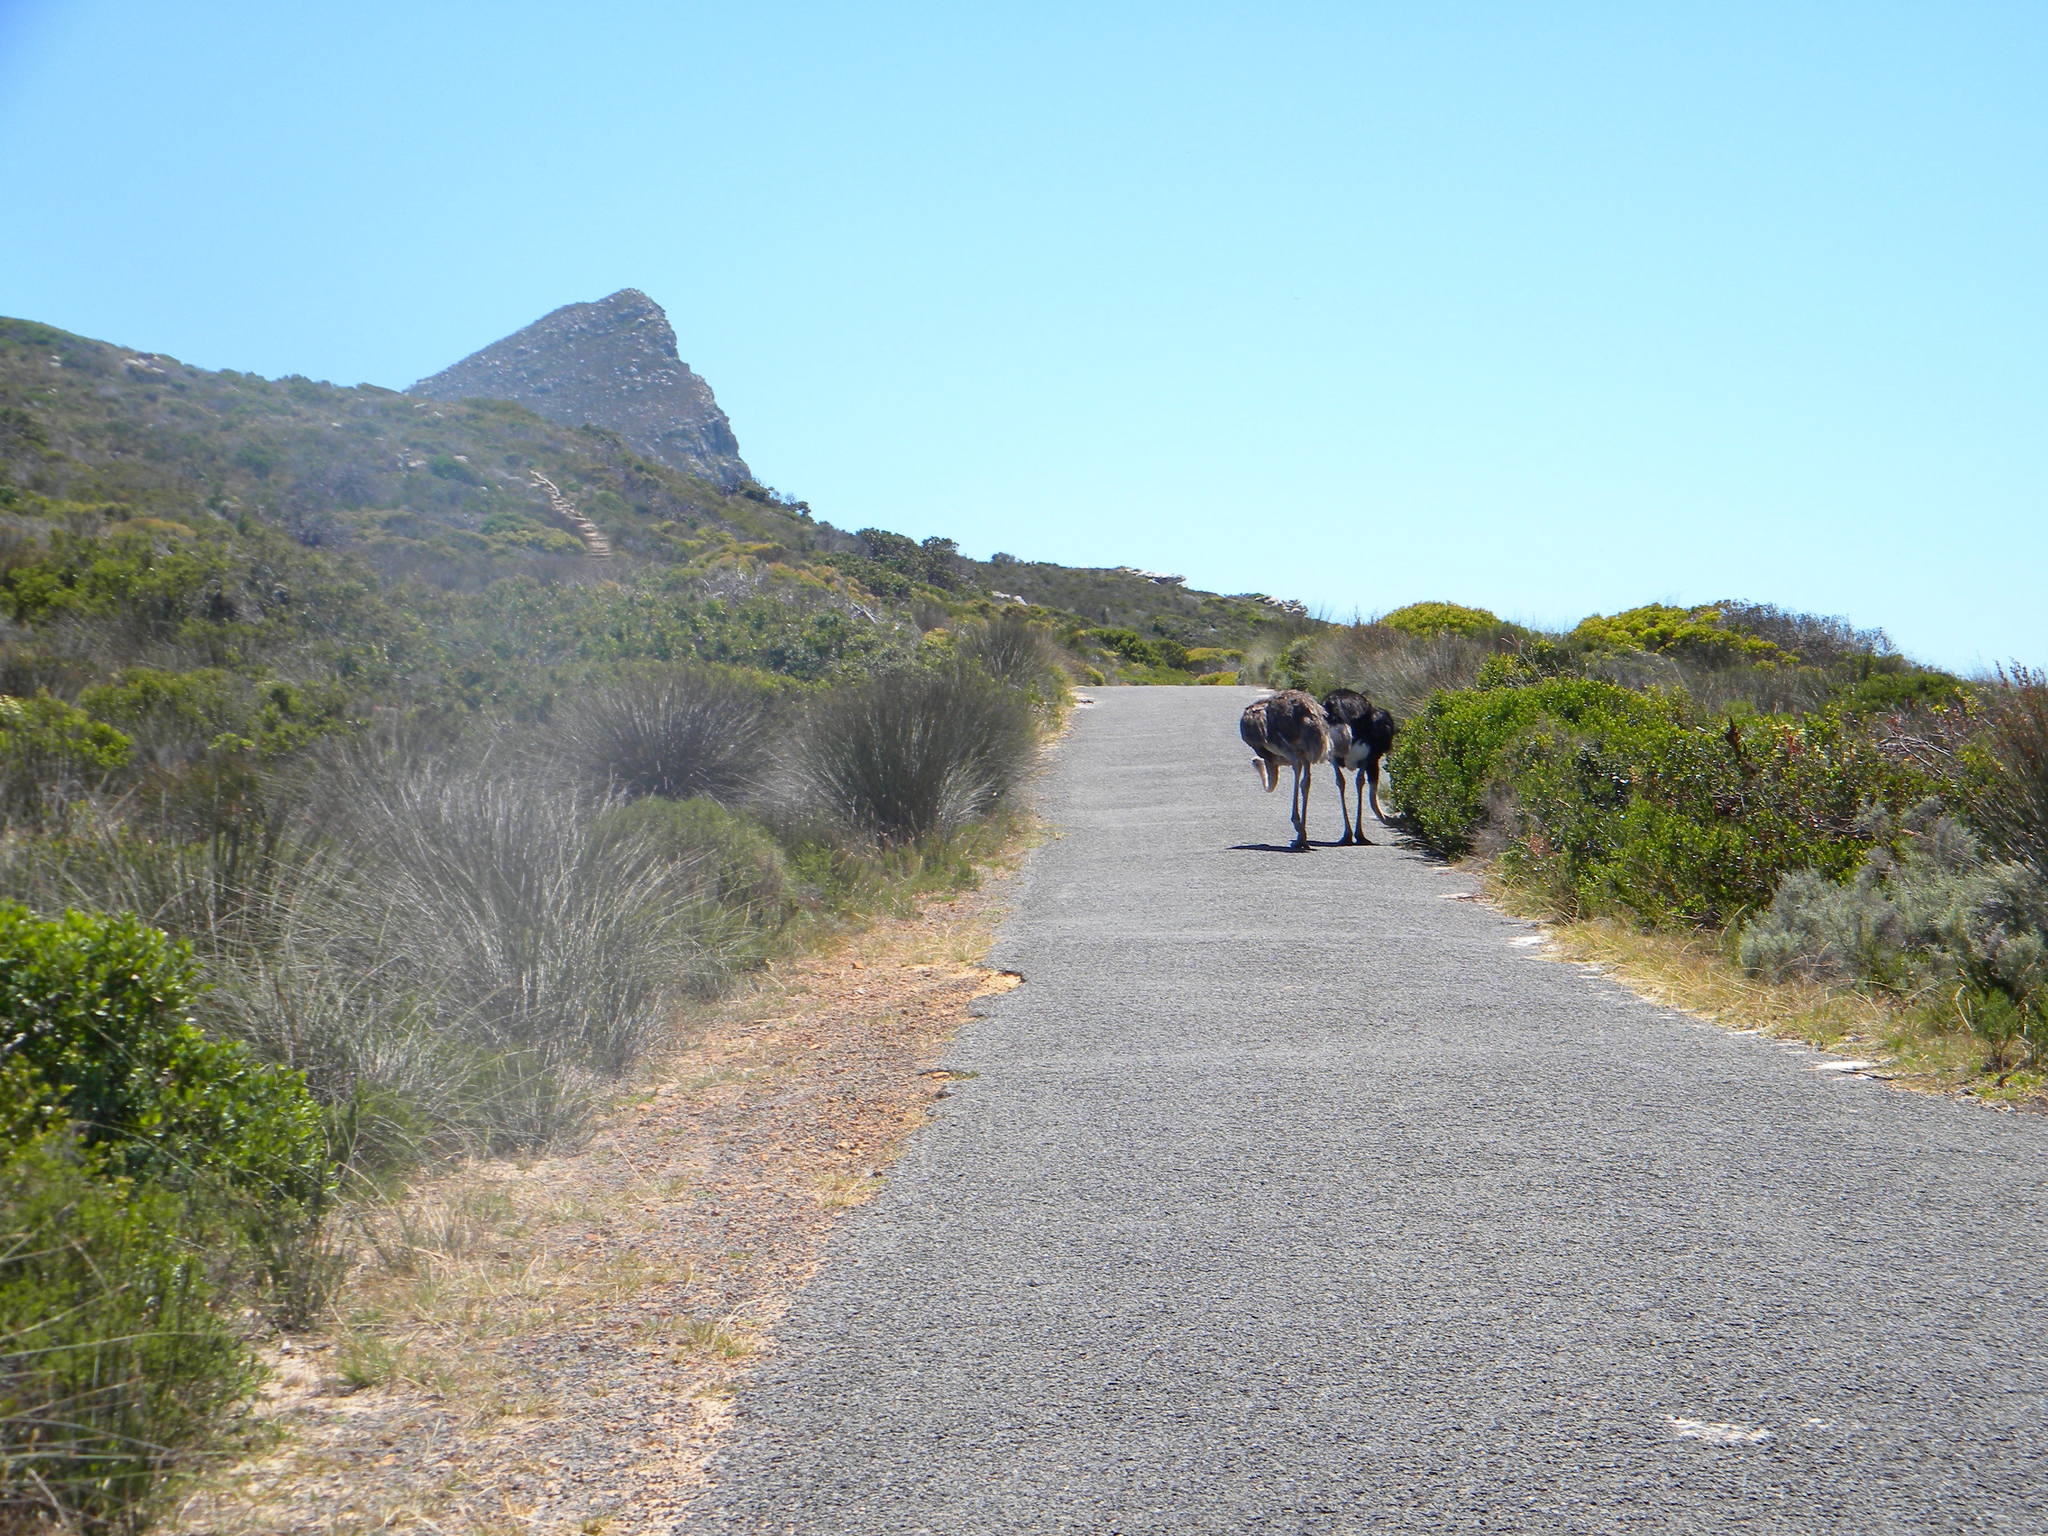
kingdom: Animalia
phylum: Chordata
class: Aves
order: Struthioniformes
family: Struthionidae
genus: Struthio
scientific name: Struthio camelus
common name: Common ostrich
